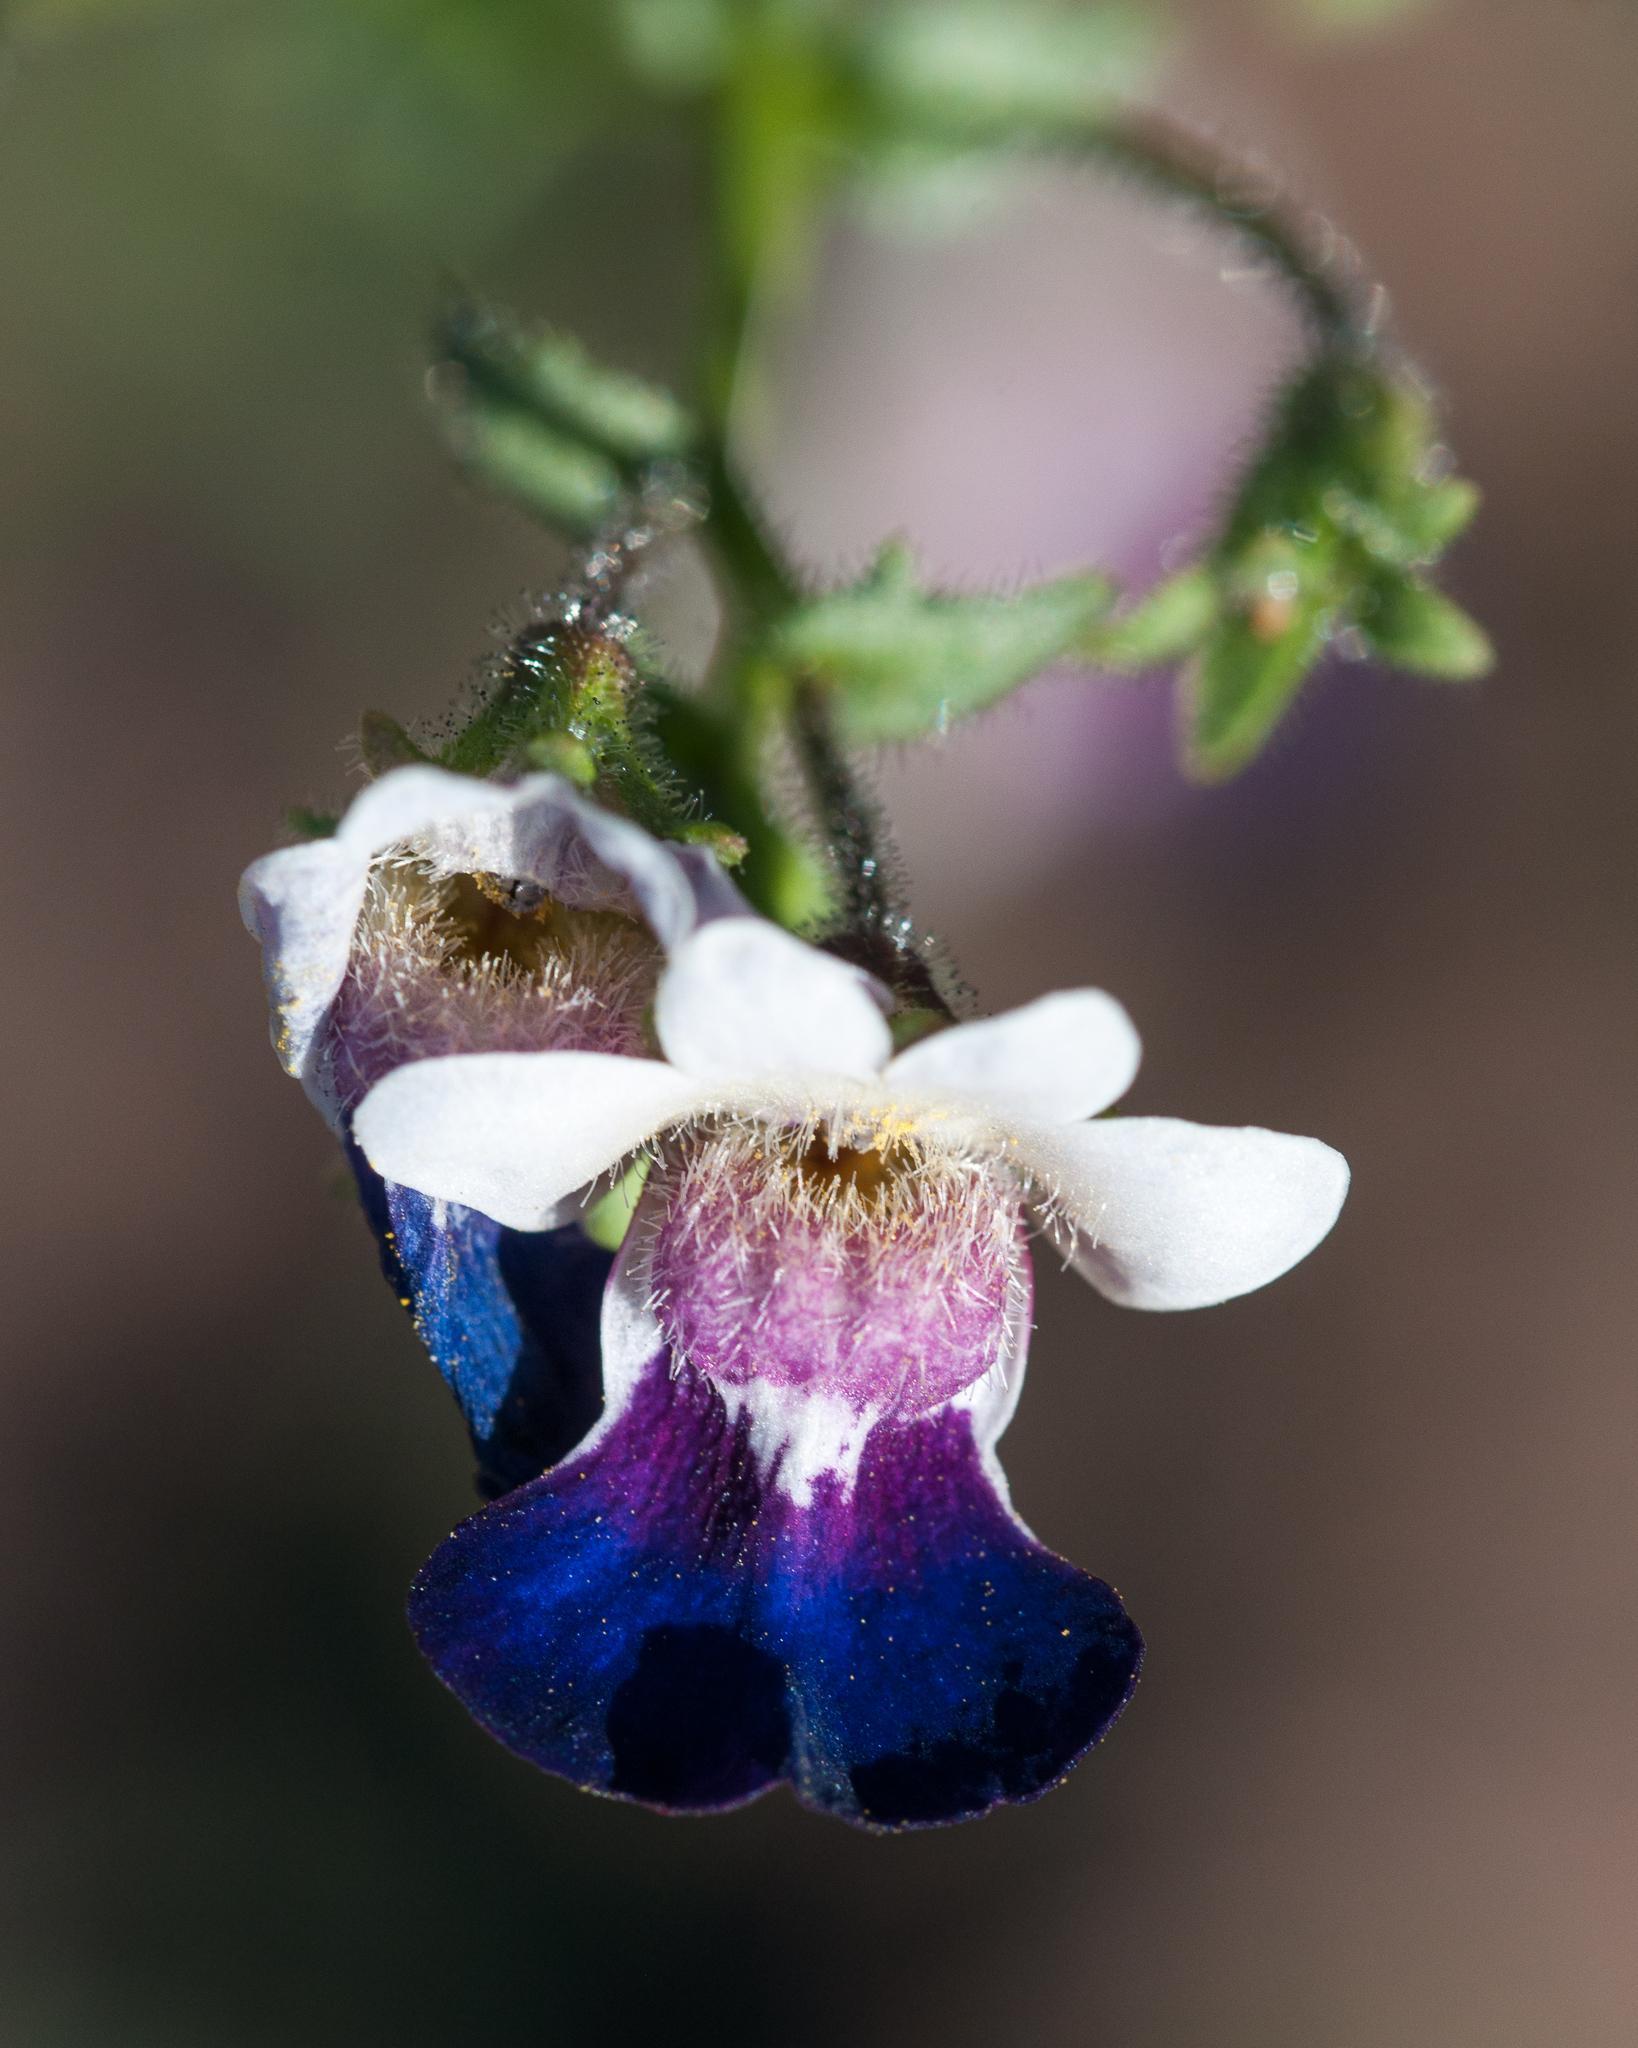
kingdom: Plantae
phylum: Tracheophyta
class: Magnoliopsida
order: Lamiales
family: Scrophulariaceae
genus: Nemesia
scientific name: Nemesia barbata
